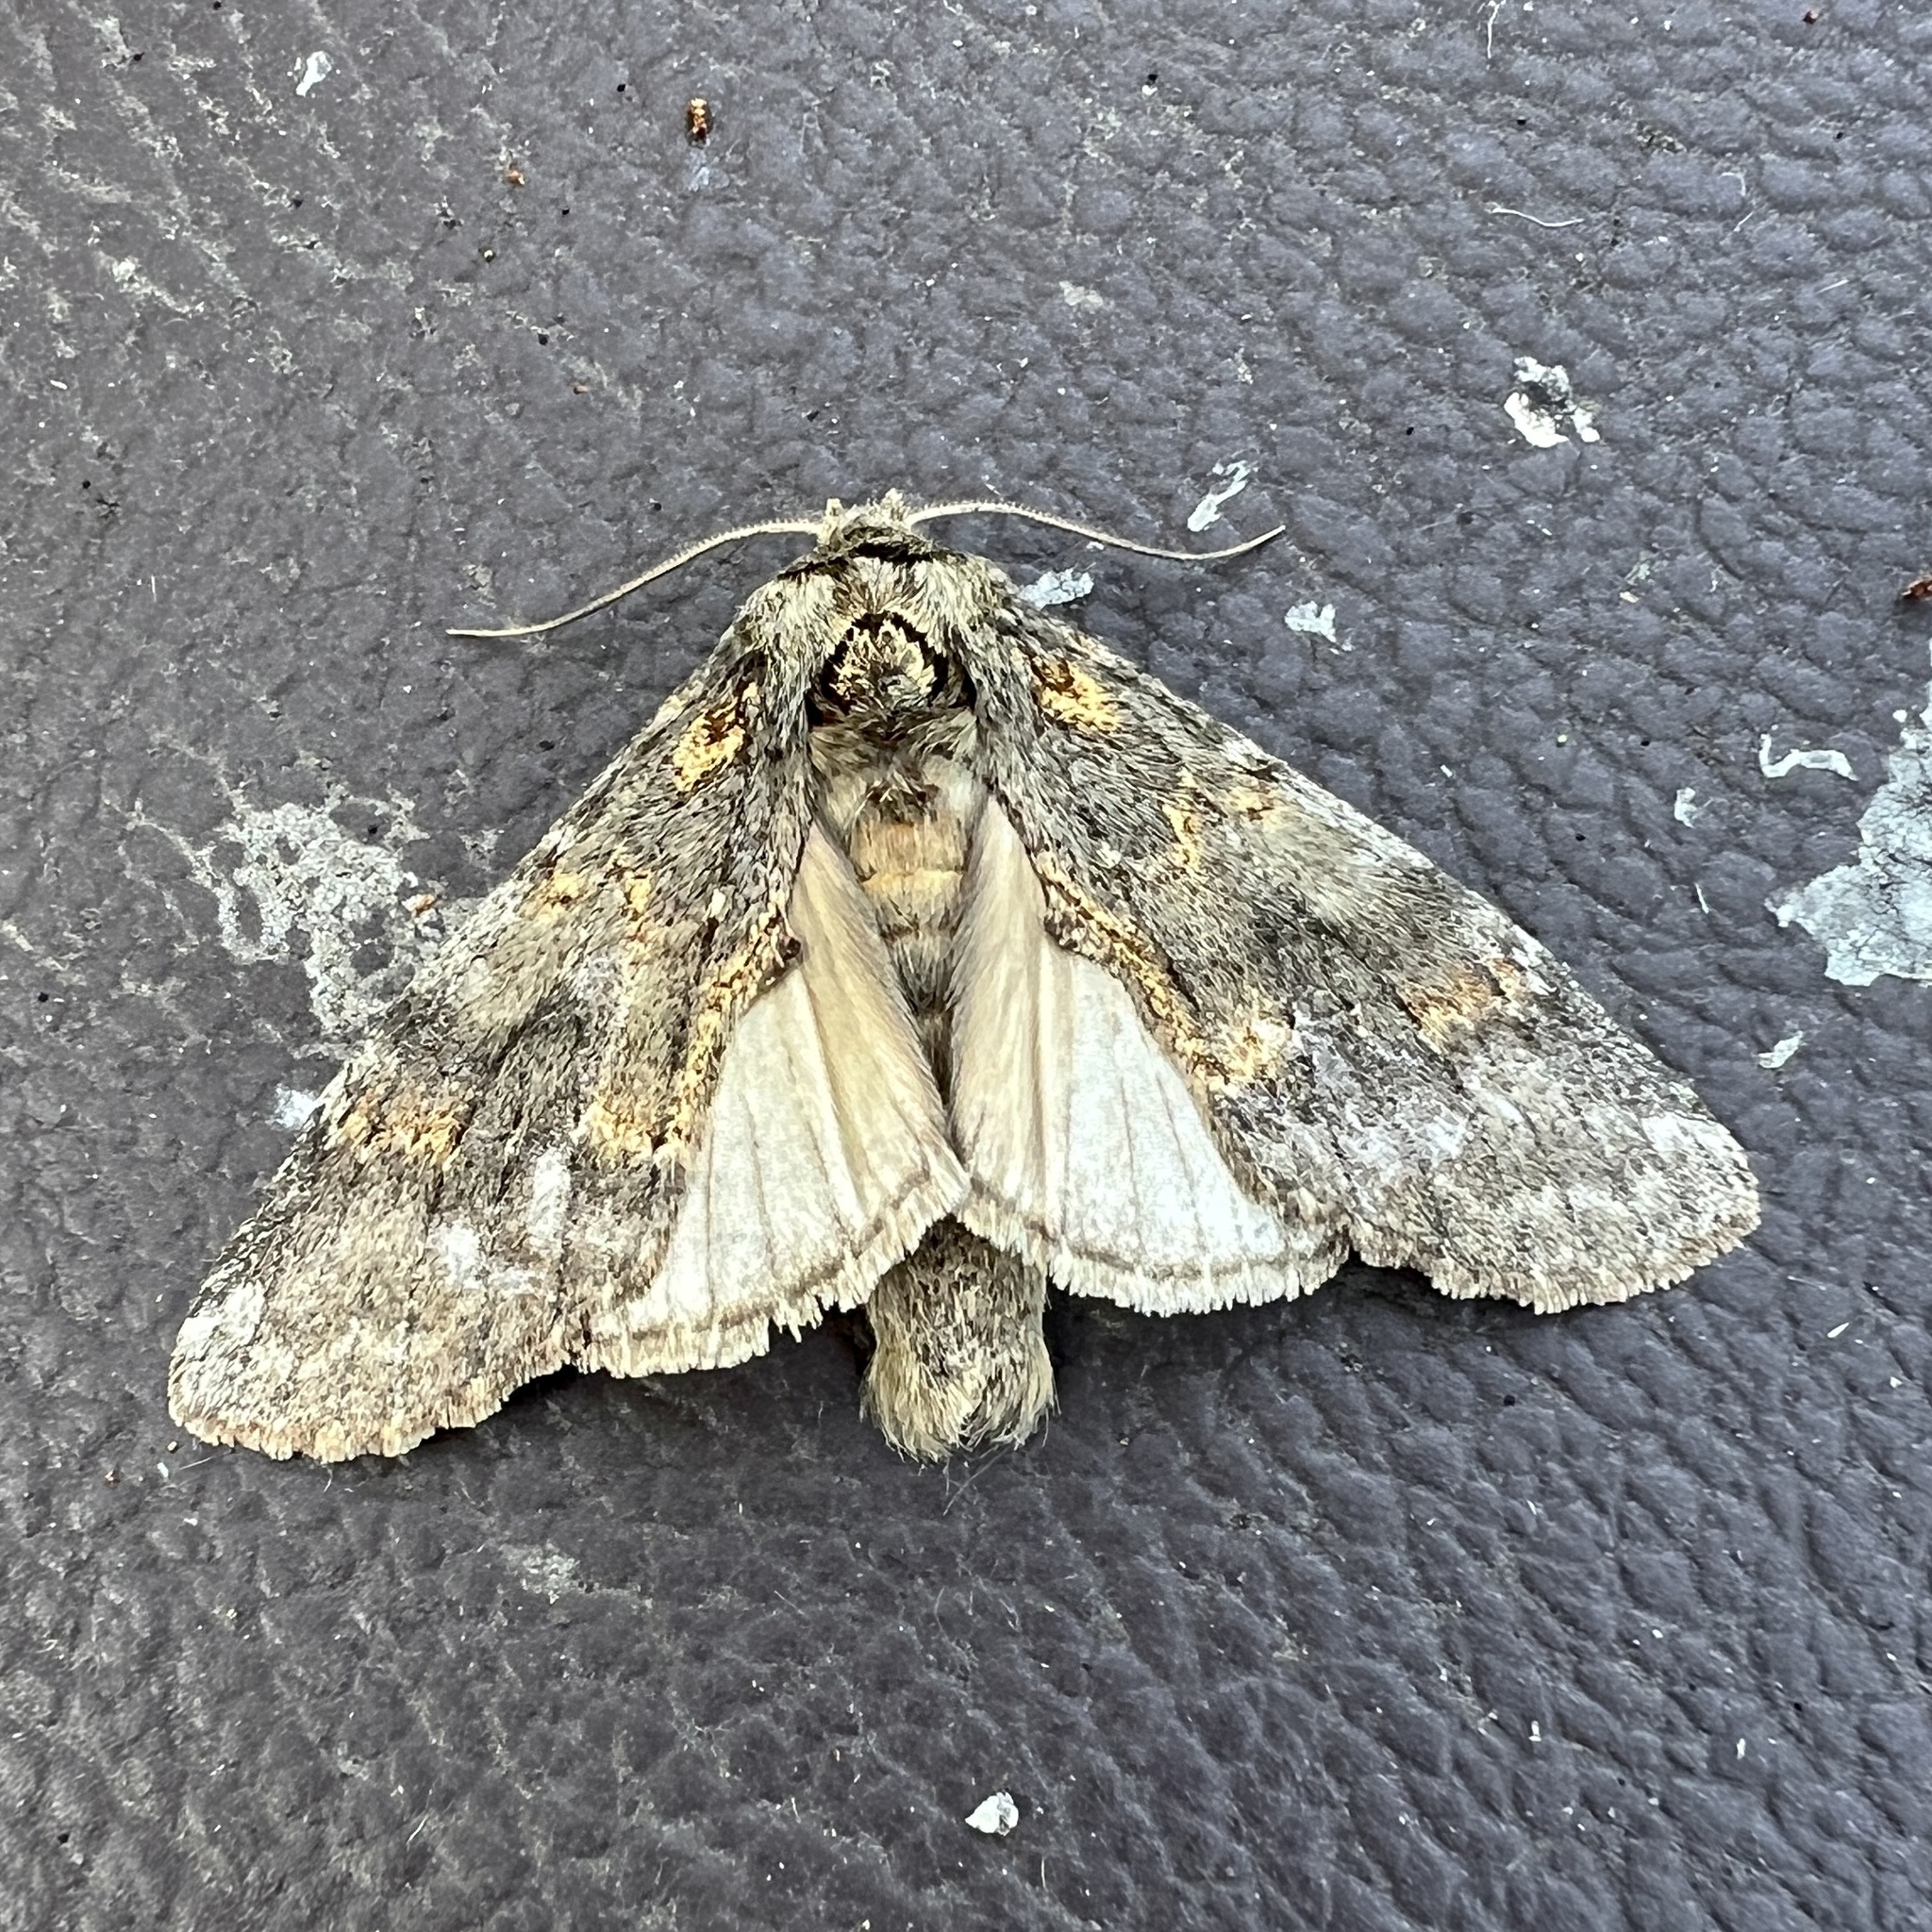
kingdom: Animalia
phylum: Arthropoda
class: Insecta
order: Lepidoptera
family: Notodontidae
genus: Peridea
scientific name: Peridea angulosa
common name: Angulose prominent
